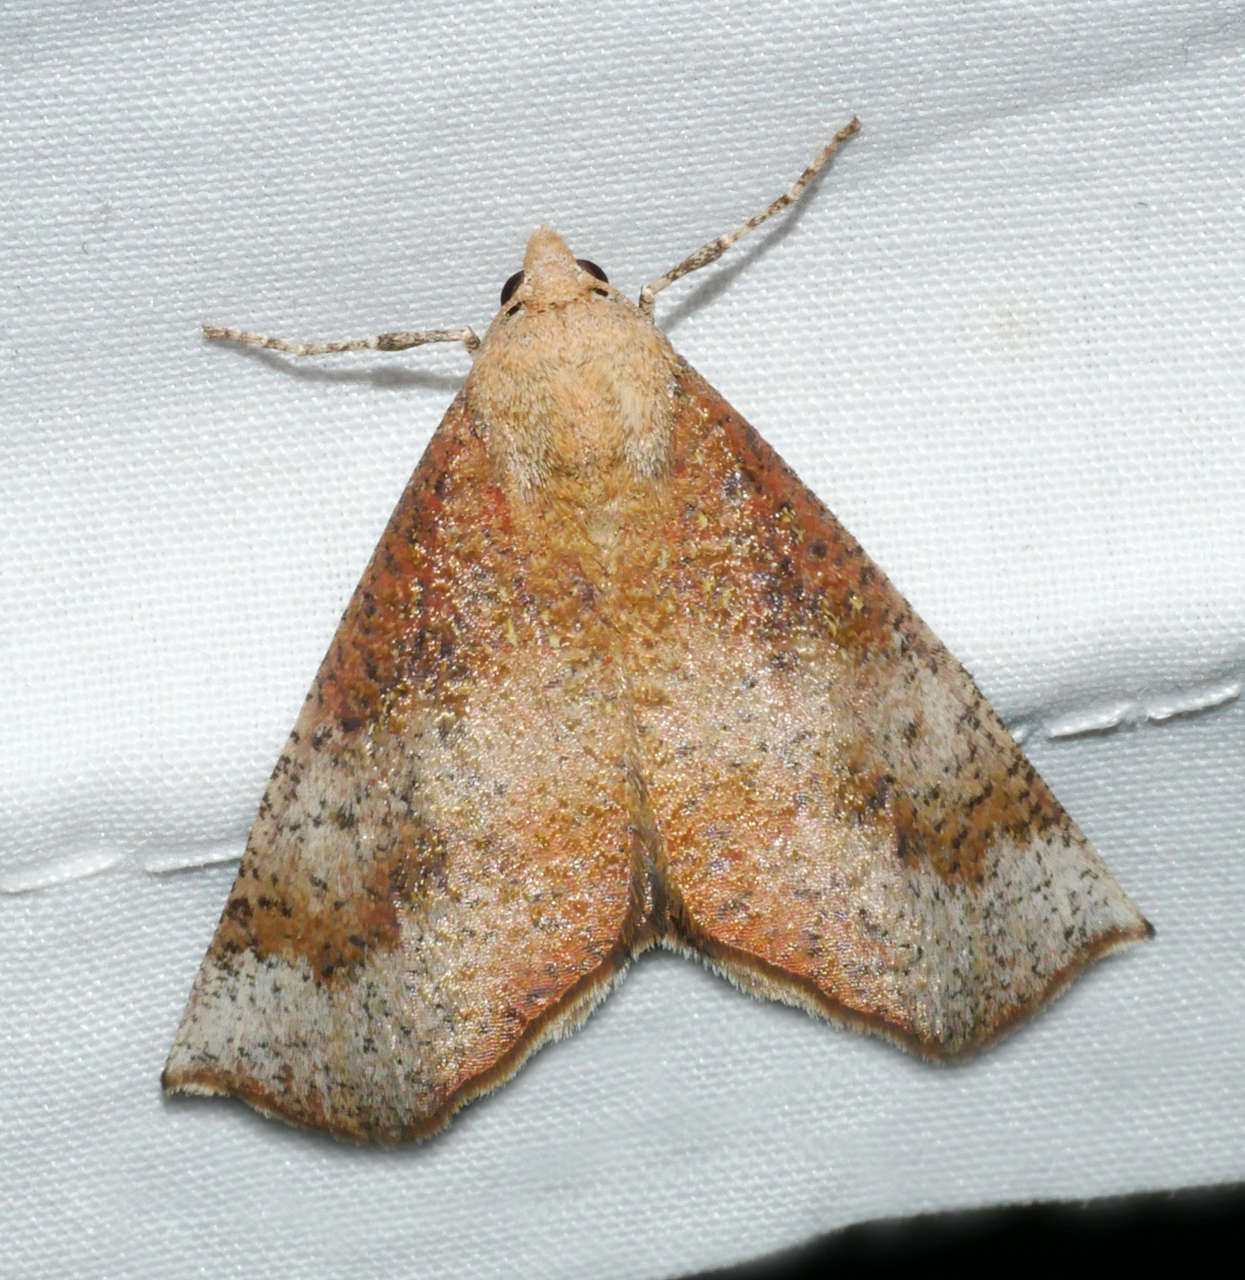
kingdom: Animalia
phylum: Arthropoda
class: Insecta
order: Lepidoptera
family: Geometridae
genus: Mnesampela
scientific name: Mnesampela comarcha
